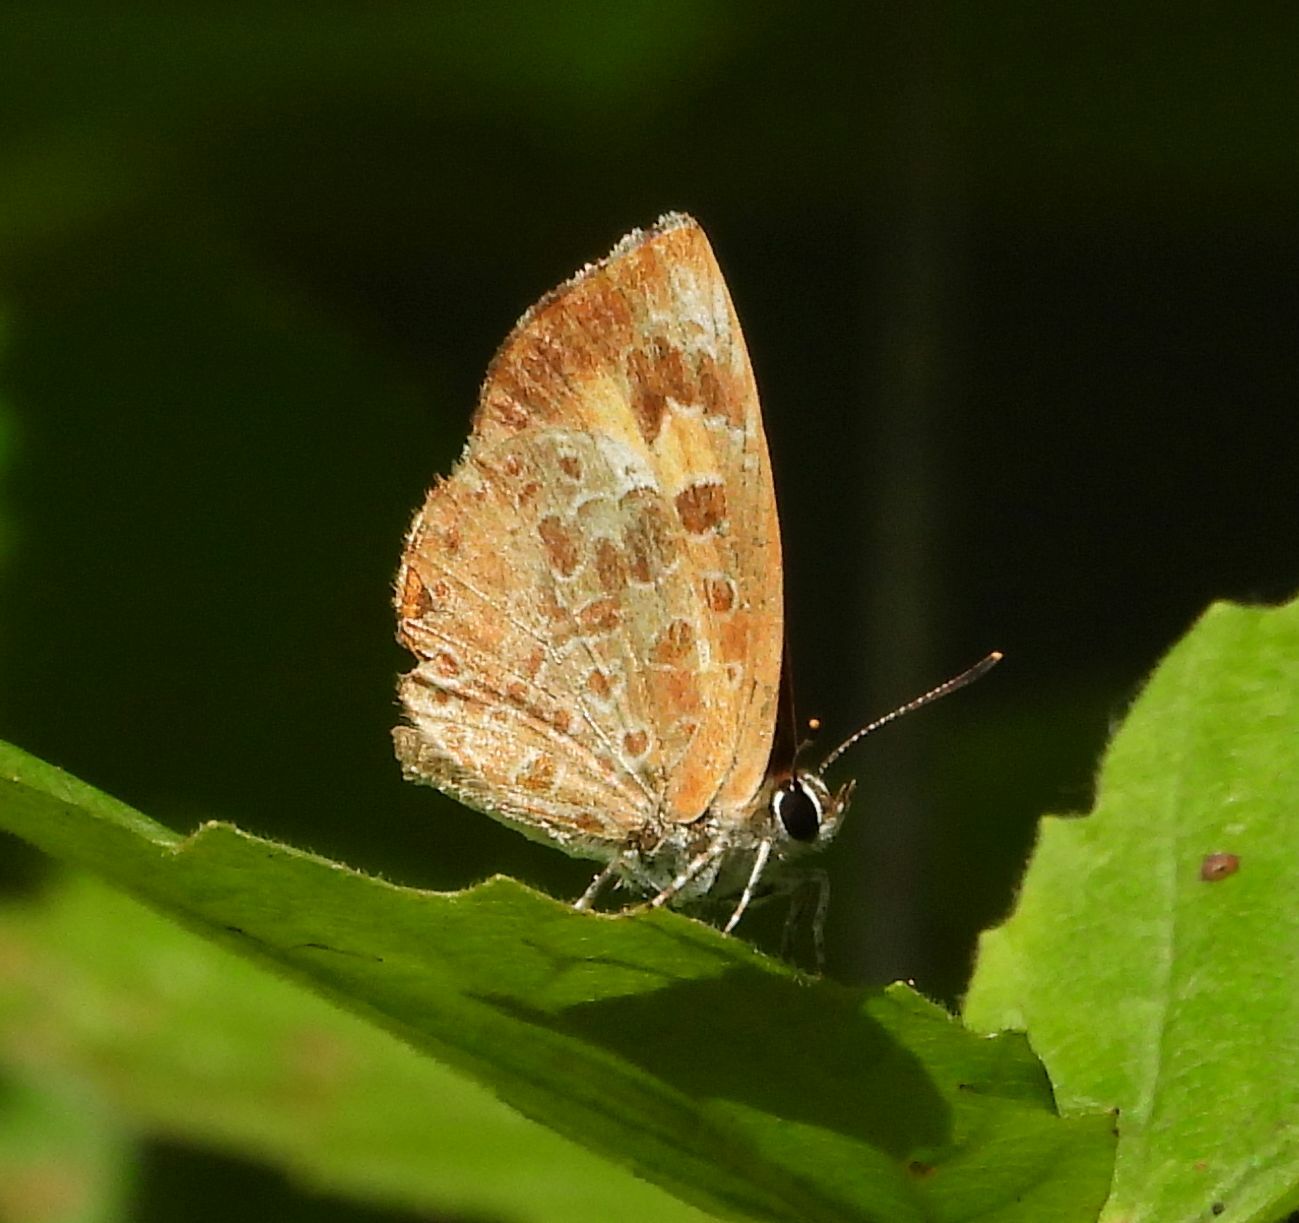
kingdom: Animalia
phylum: Arthropoda
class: Insecta
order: Lepidoptera
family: Lycaenidae
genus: Feniseca
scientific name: Feniseca tarquinius
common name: Harvester
